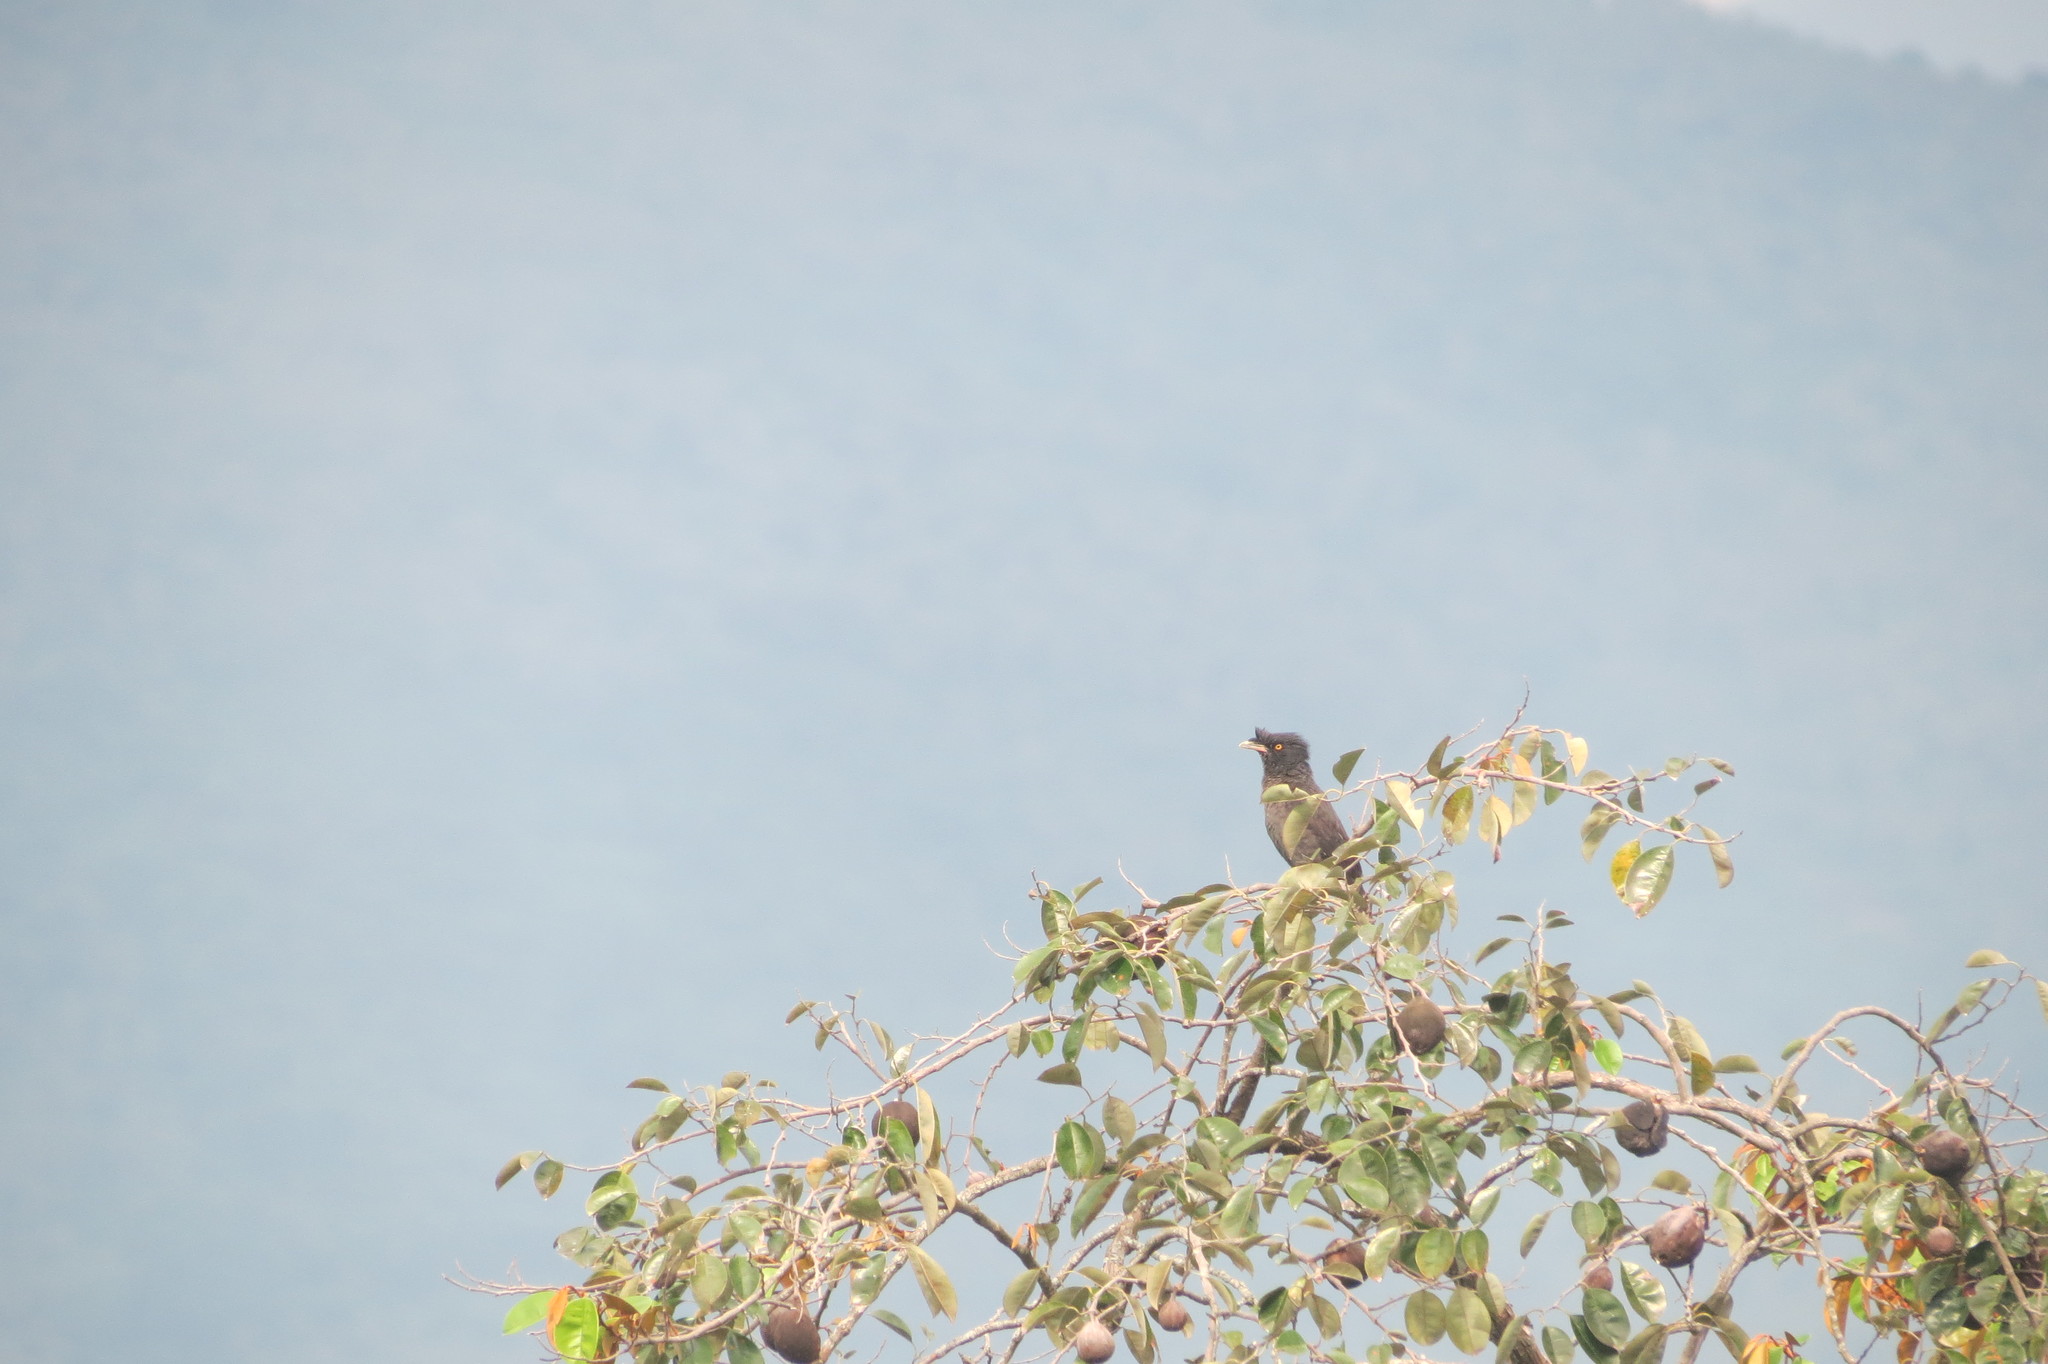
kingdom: Animalia
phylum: Chordata
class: Aves
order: Passeriformes
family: Sturnidae
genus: Acridotheres
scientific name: Acridotheres cristatellus
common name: Crested myna
